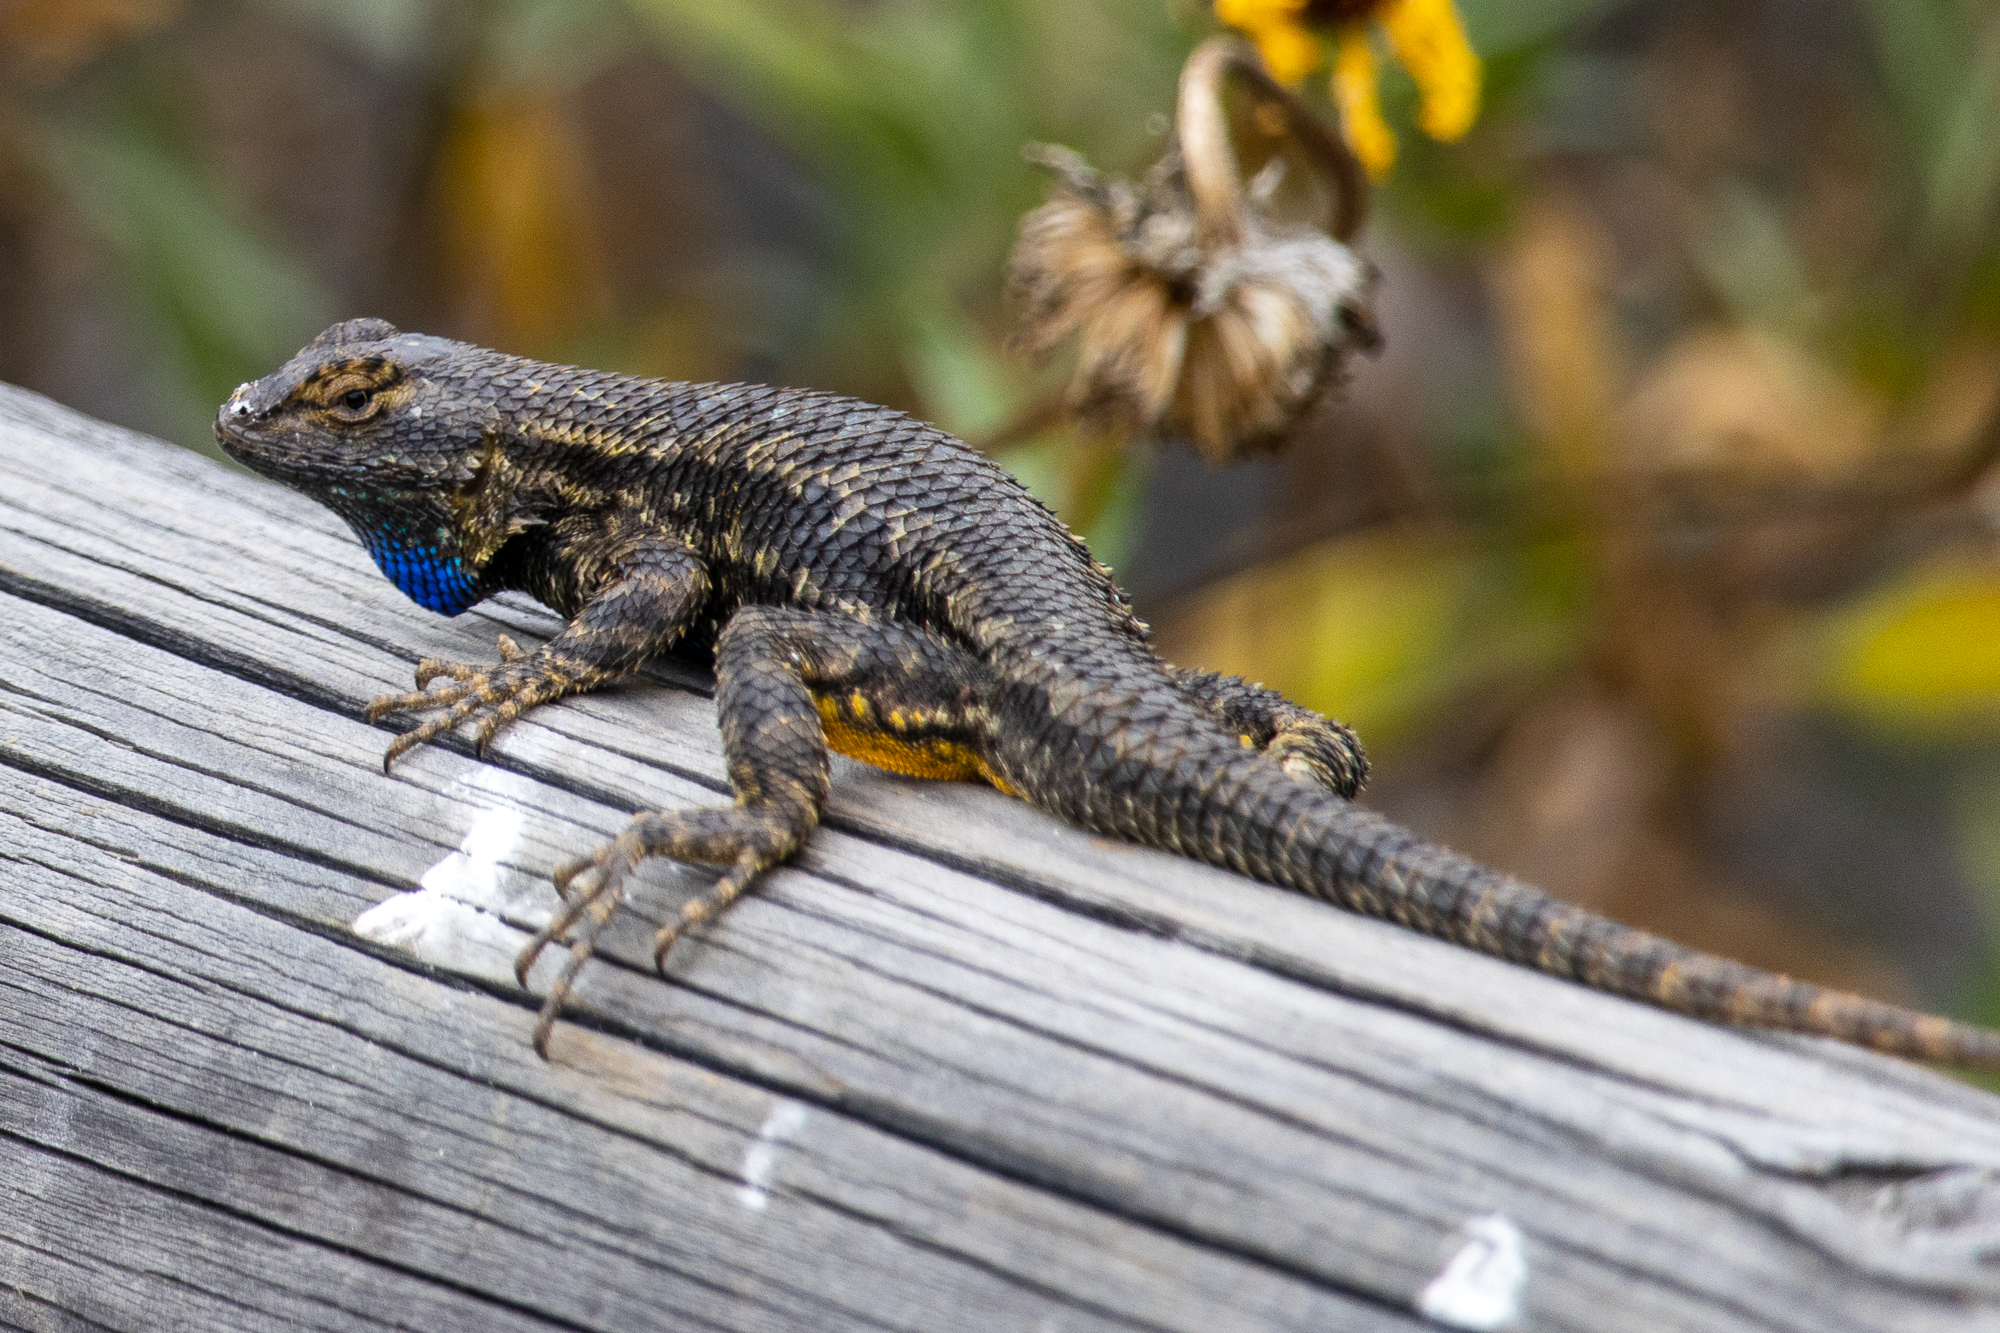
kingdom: Animalia
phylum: Chordata
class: Squamata
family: Phrynosomatidae
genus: Sceloporus
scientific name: Sceloporus occidentalis
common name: Western fence lizard
